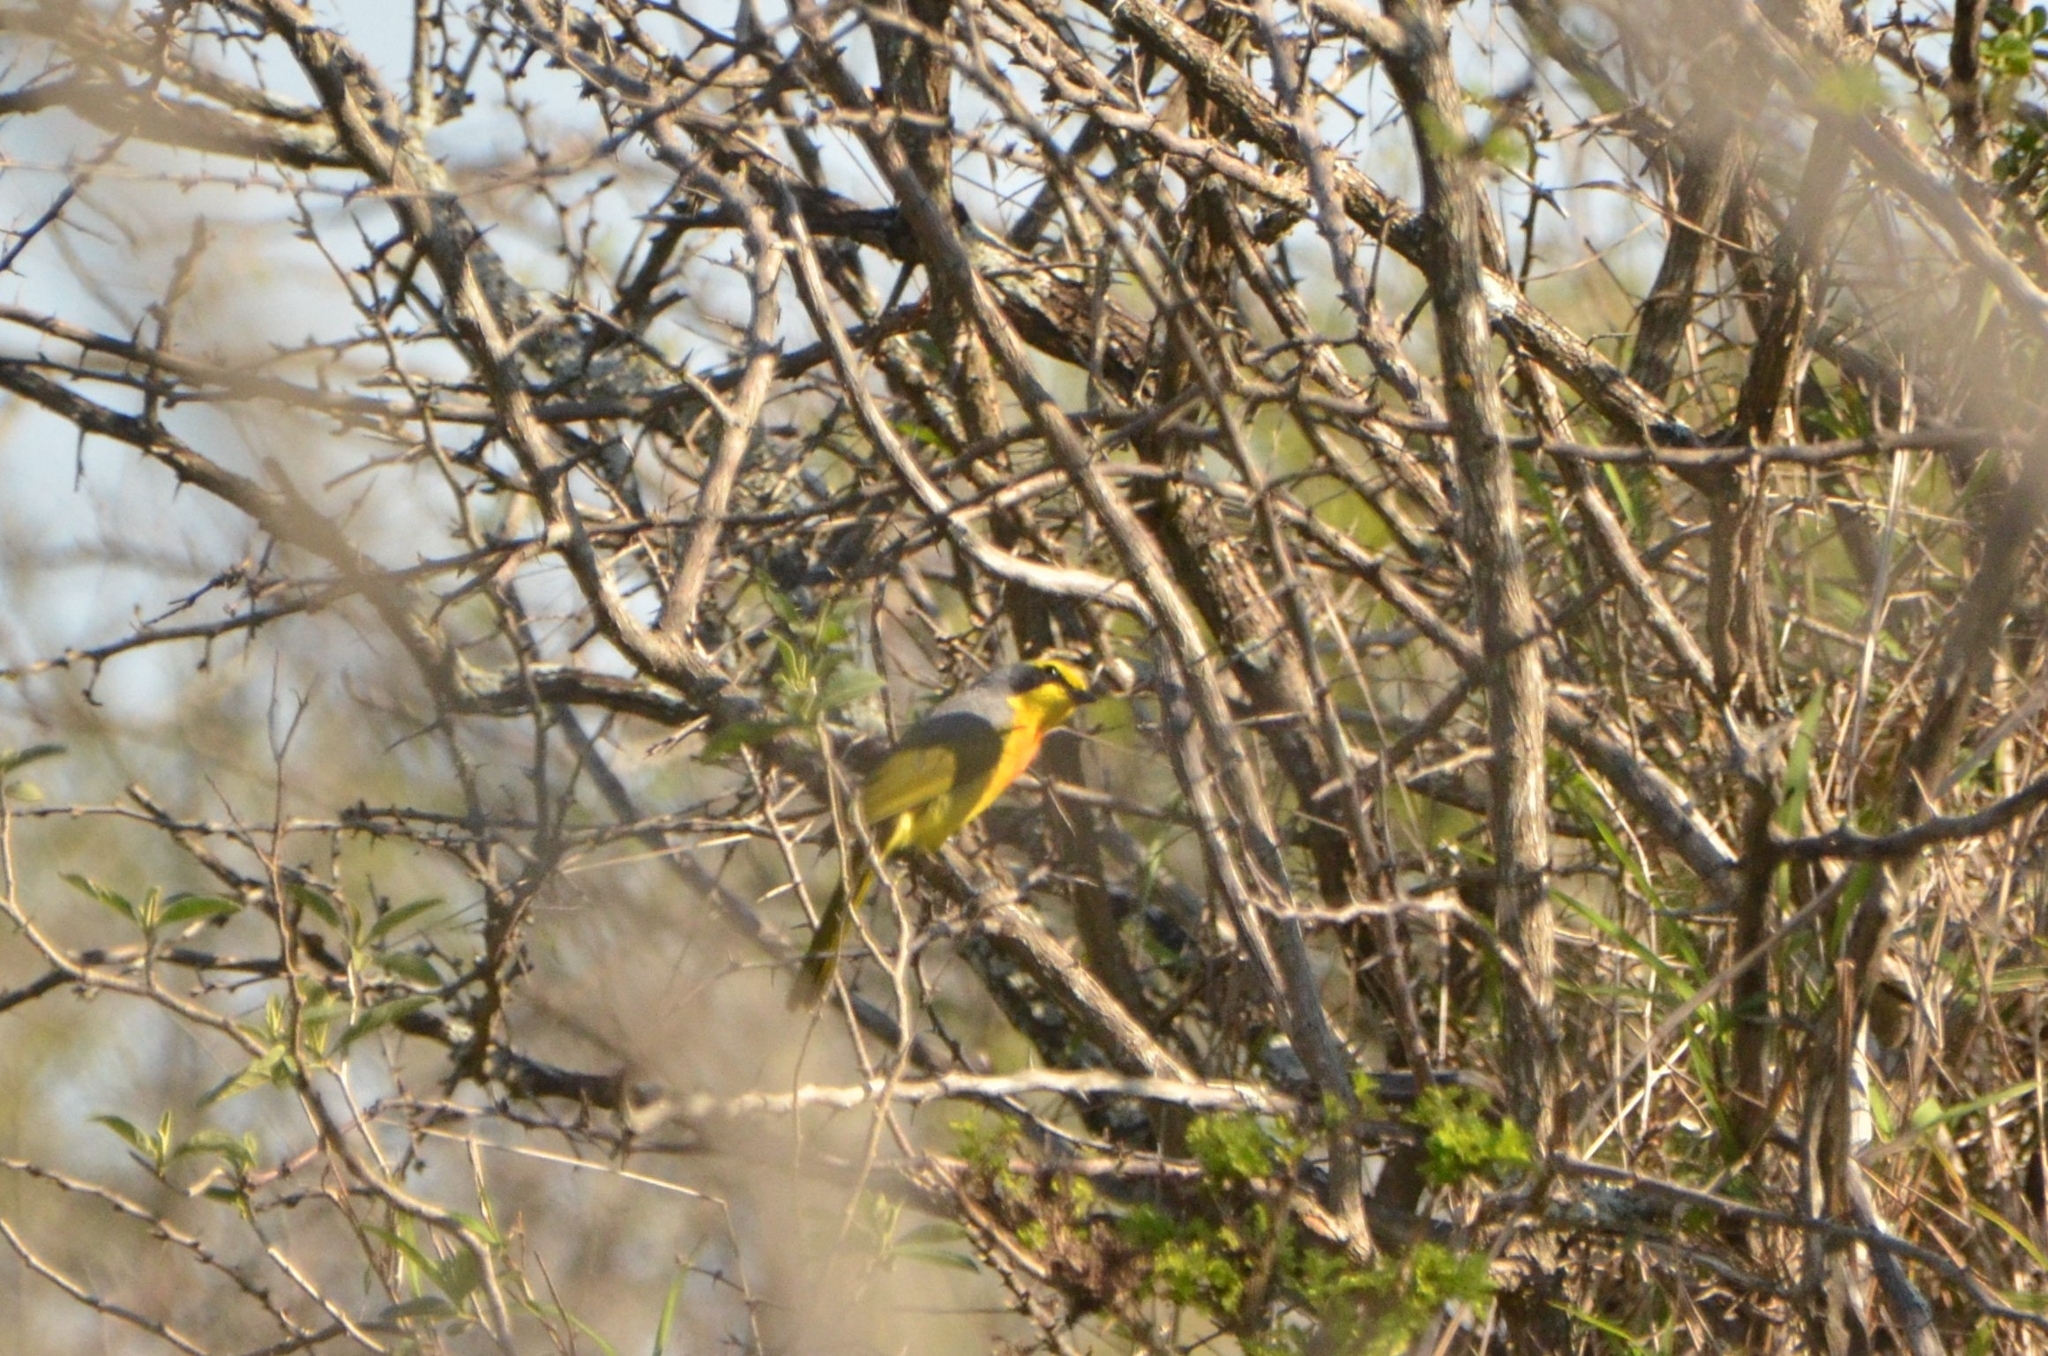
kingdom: Animalia
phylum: Chordata
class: Aves
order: Passeriformes
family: Malaconotidae
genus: Chlorophoneus
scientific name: Chlorophoneus sulfureopectus
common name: Orange-breasted bushshrike
